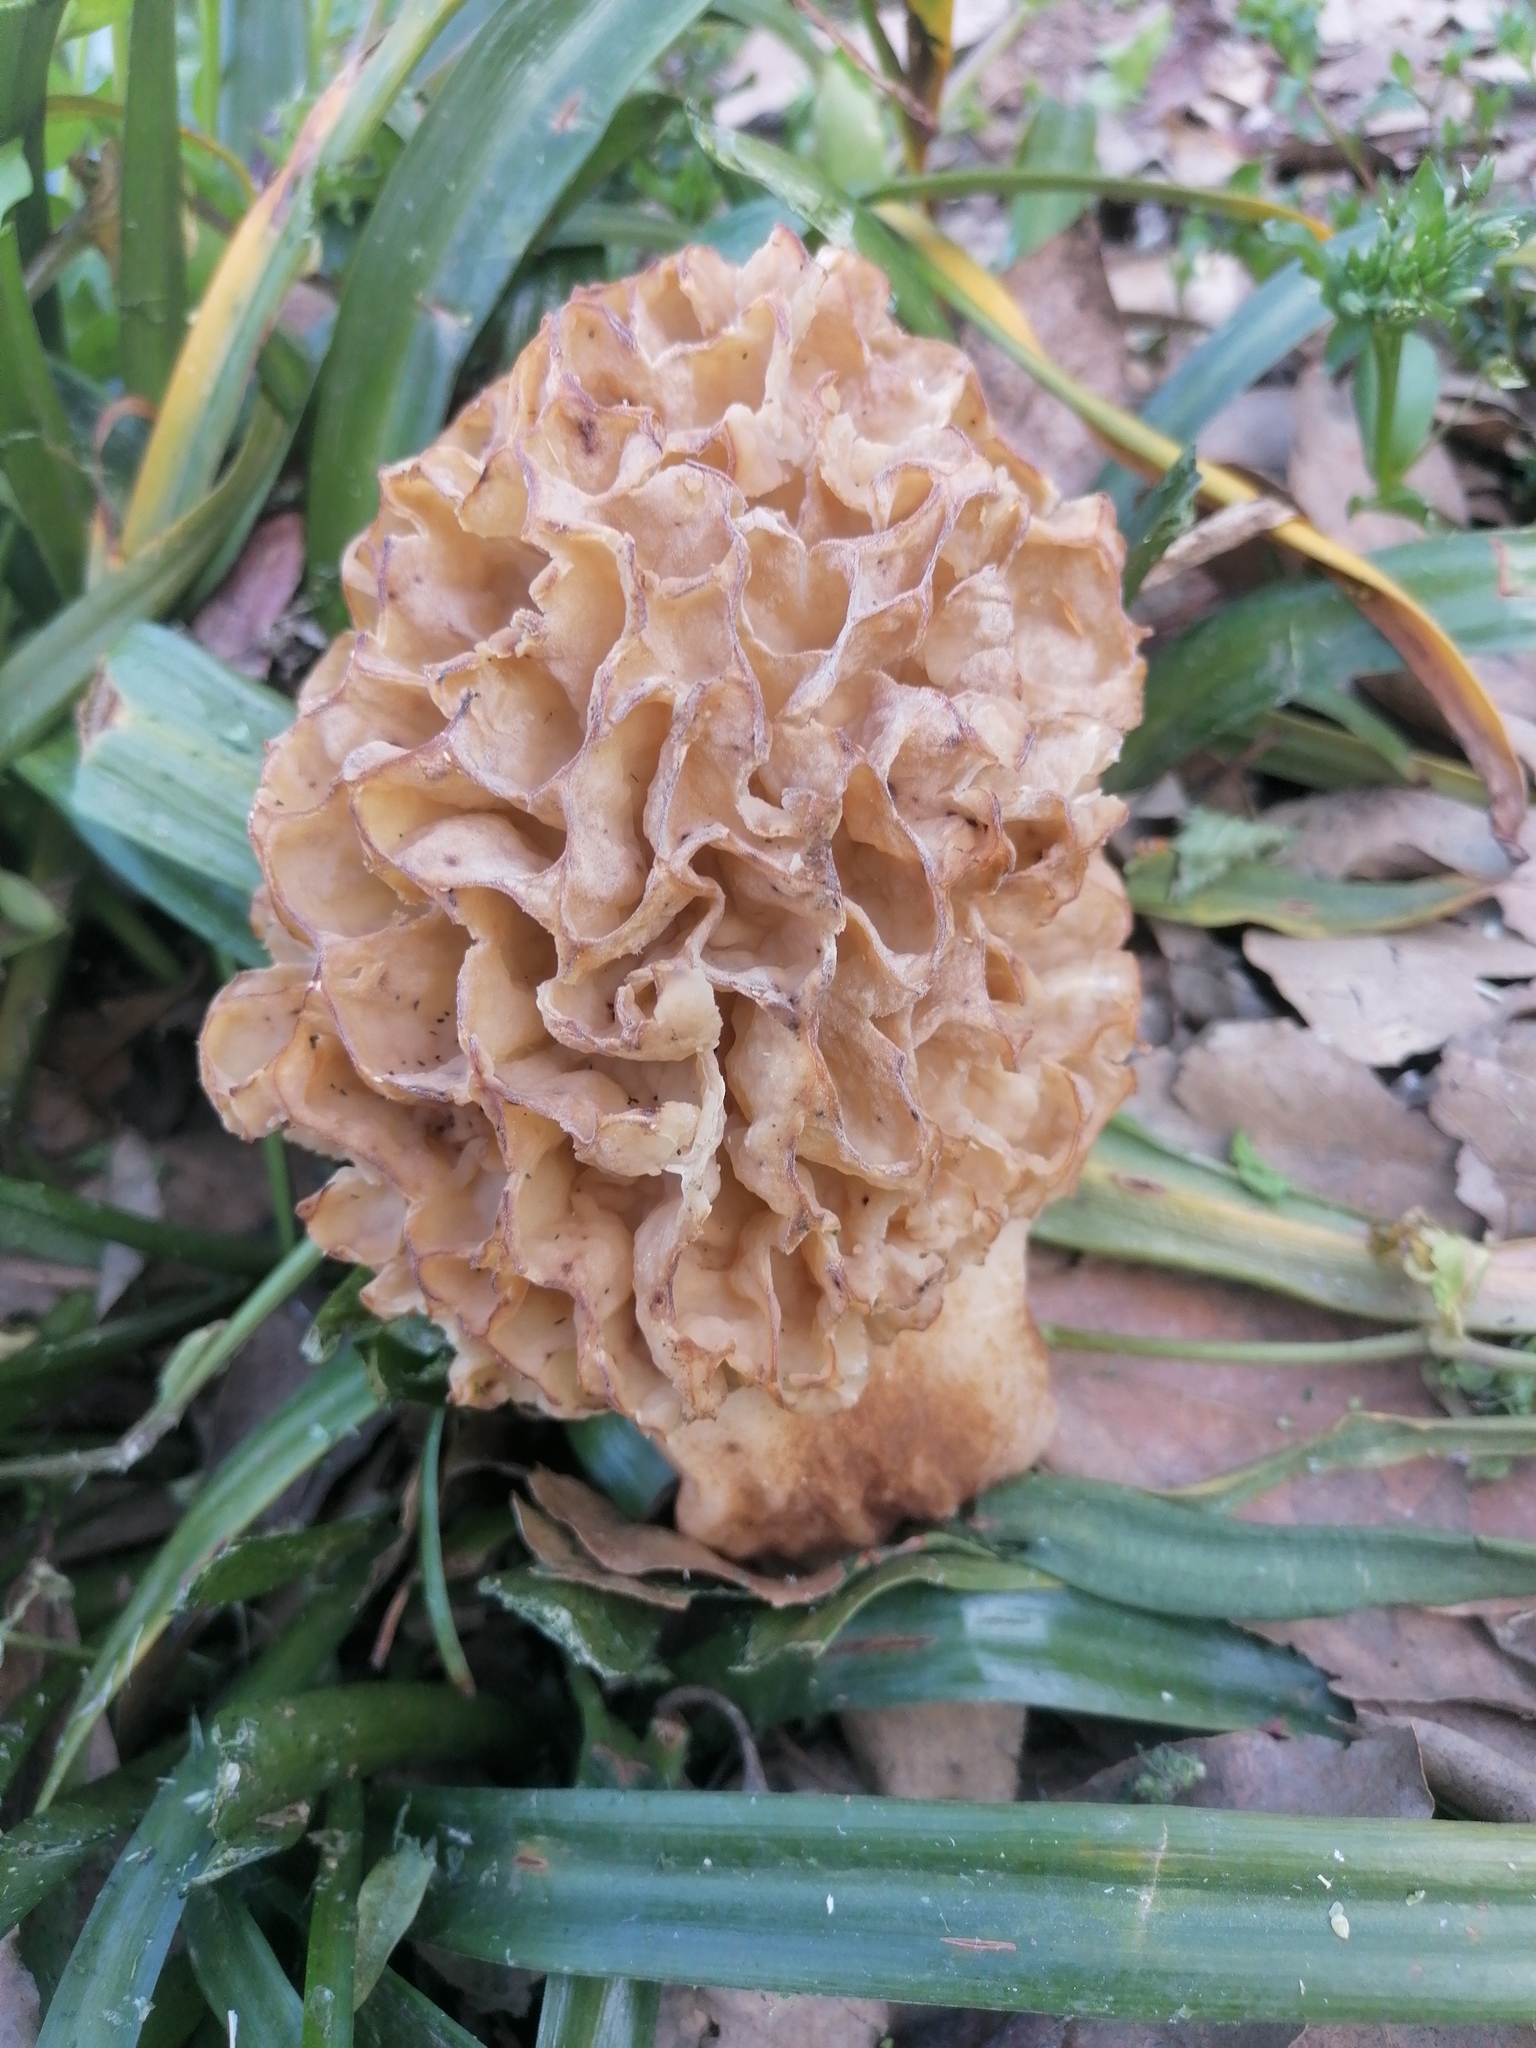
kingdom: Fungi
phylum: Ascomycota
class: Pezizomycetes
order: Pezizales
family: Morchellaceae
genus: Morchella
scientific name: Morchella
